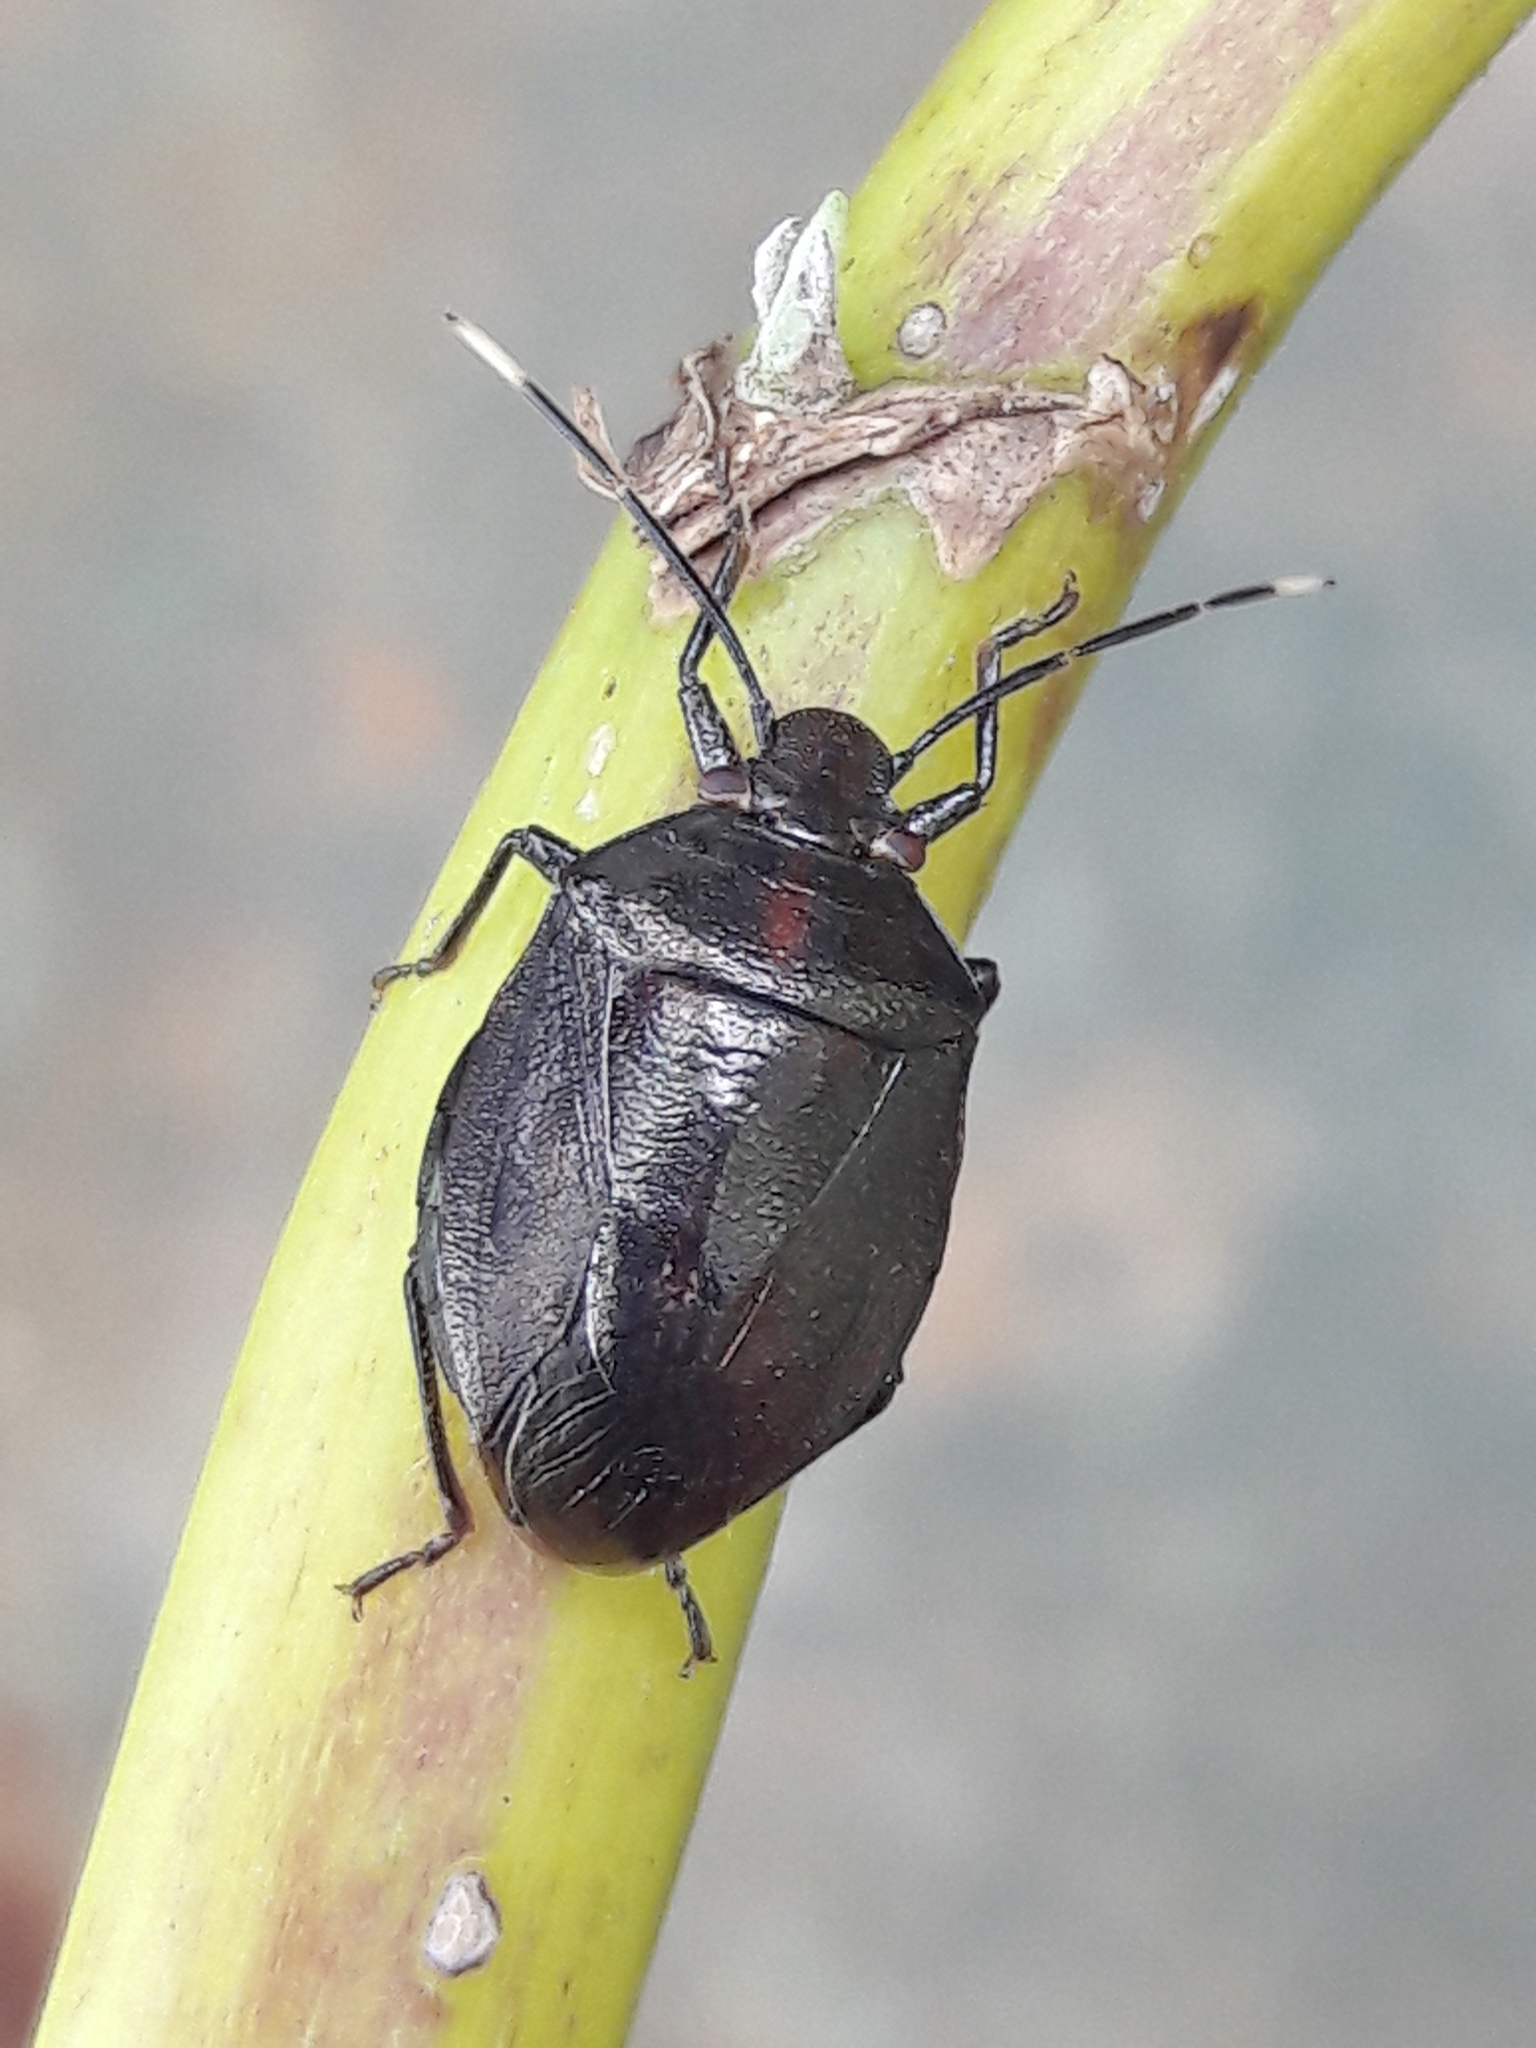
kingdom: Animalia
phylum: Arthropoda
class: Insecta
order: Hemiptera
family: Pentatomidae
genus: Antiteuchus
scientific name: Antiteuchus tripterus
